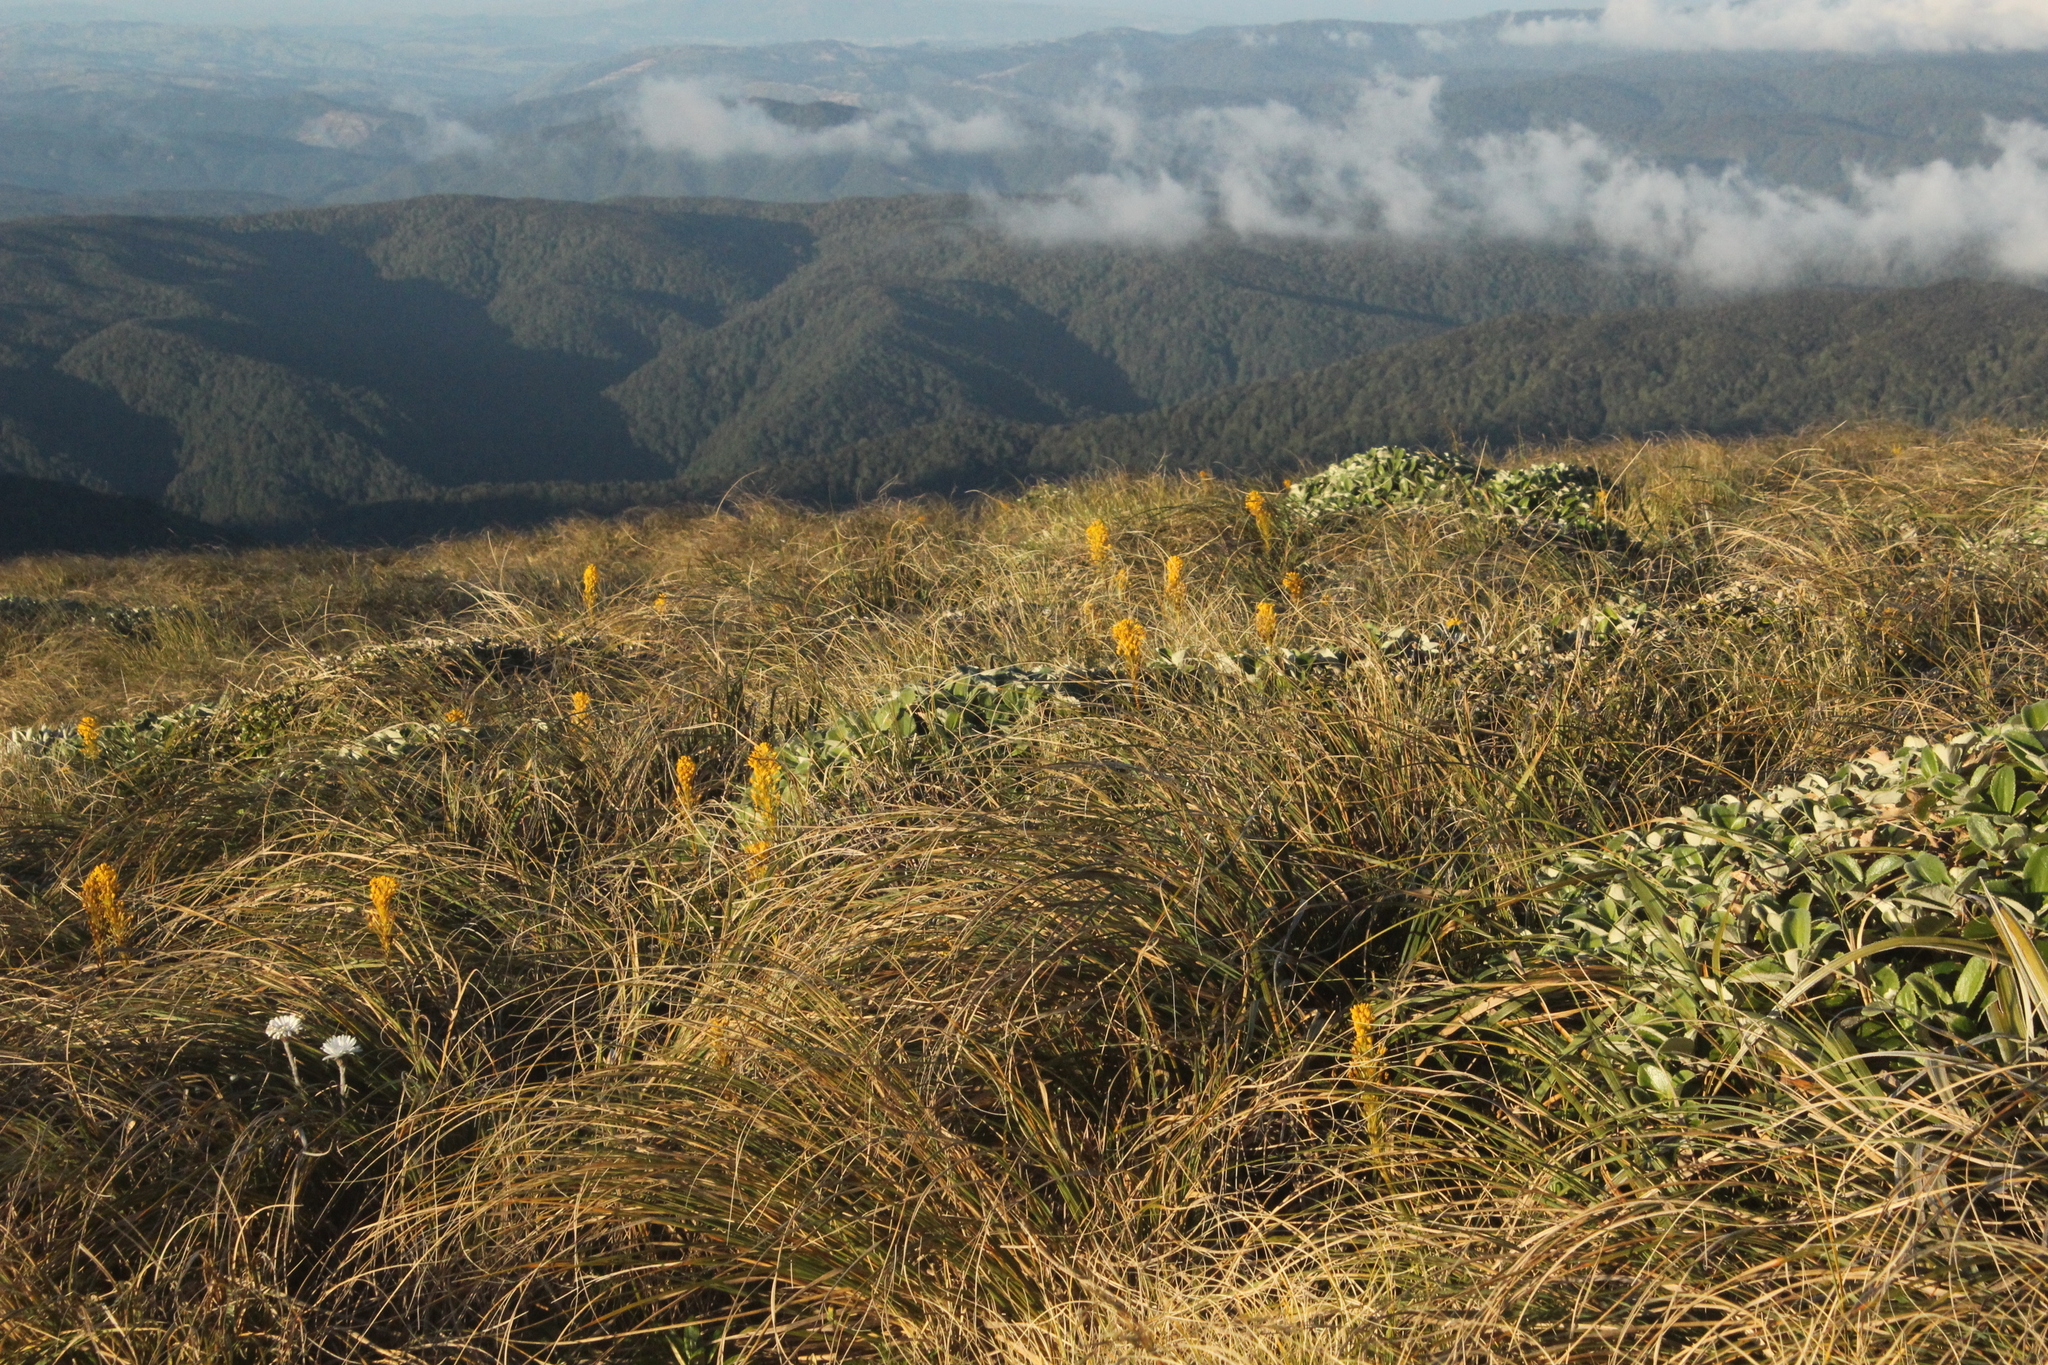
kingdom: Plantae
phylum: Tracheophyta
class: Liliopsida
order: Asparagales
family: Asphodelaceae
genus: Bulbinella
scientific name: Bulbinella hookeri
